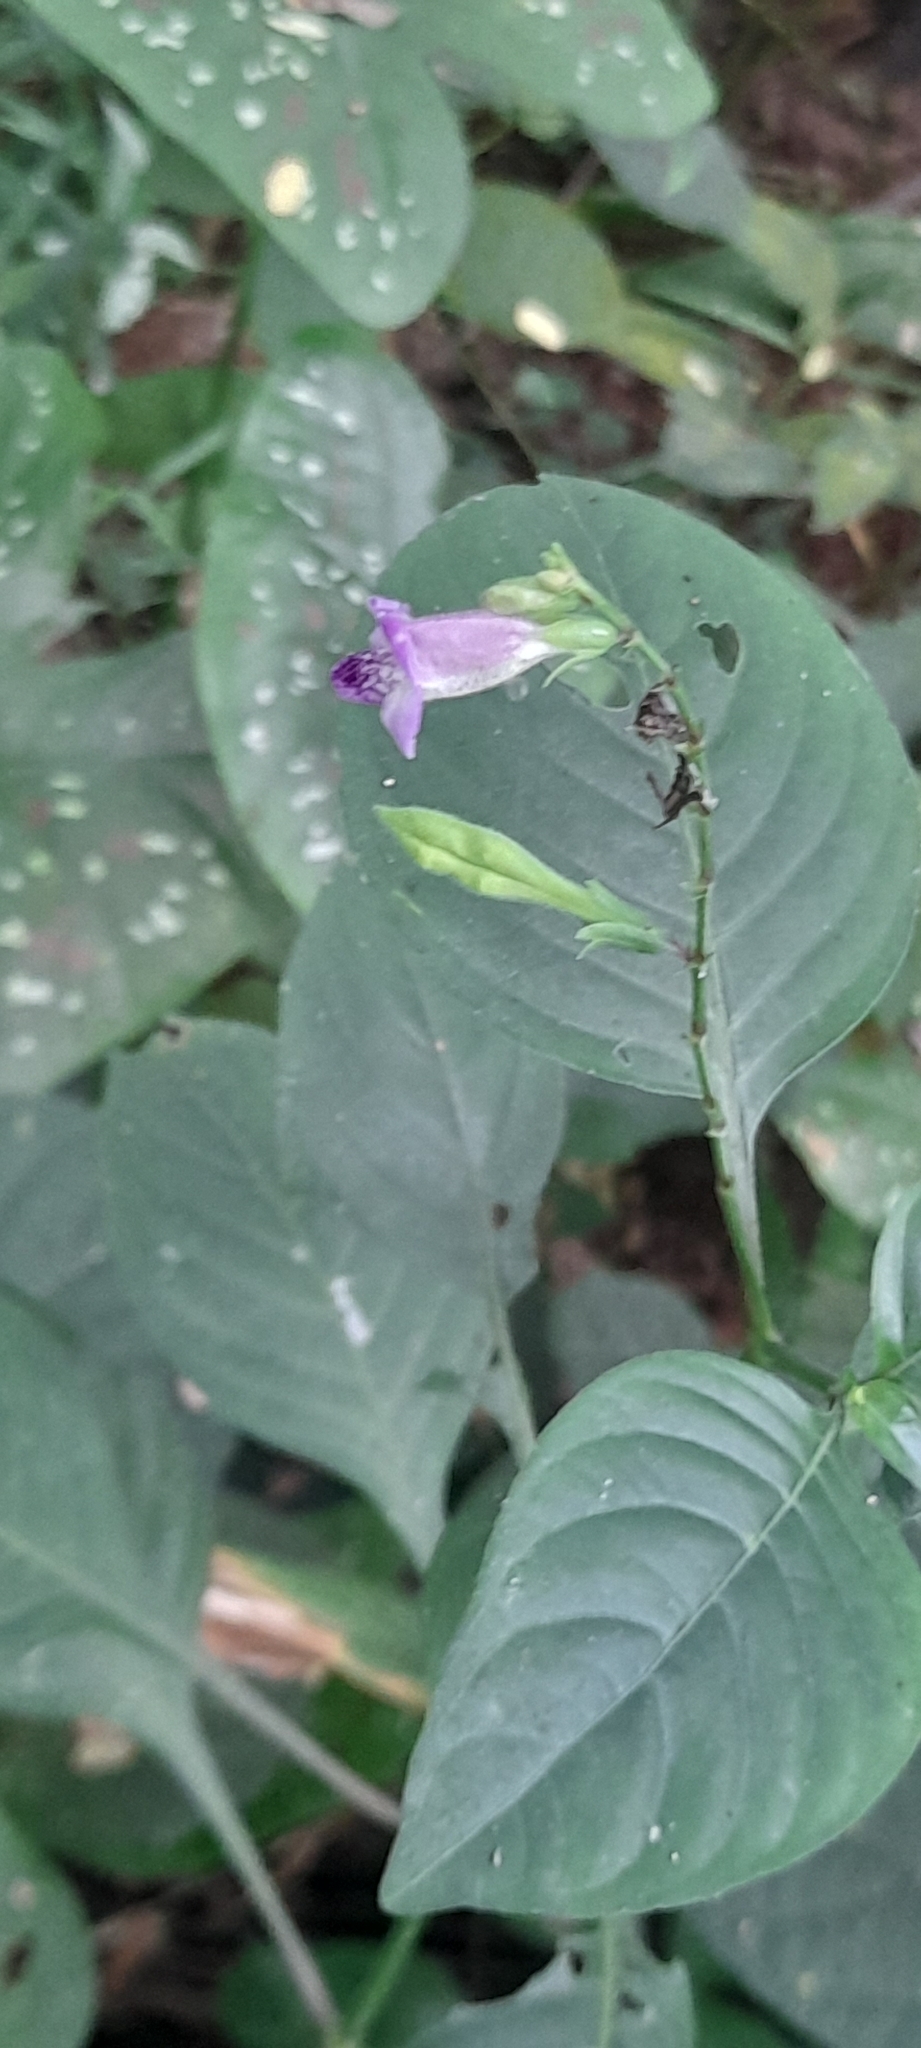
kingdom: Plantae
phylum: Tracheophyta
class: Magnoliopsida
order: Lamiales
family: Acanthaceae
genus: Asystasia
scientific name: Asystasia dalzelliana
